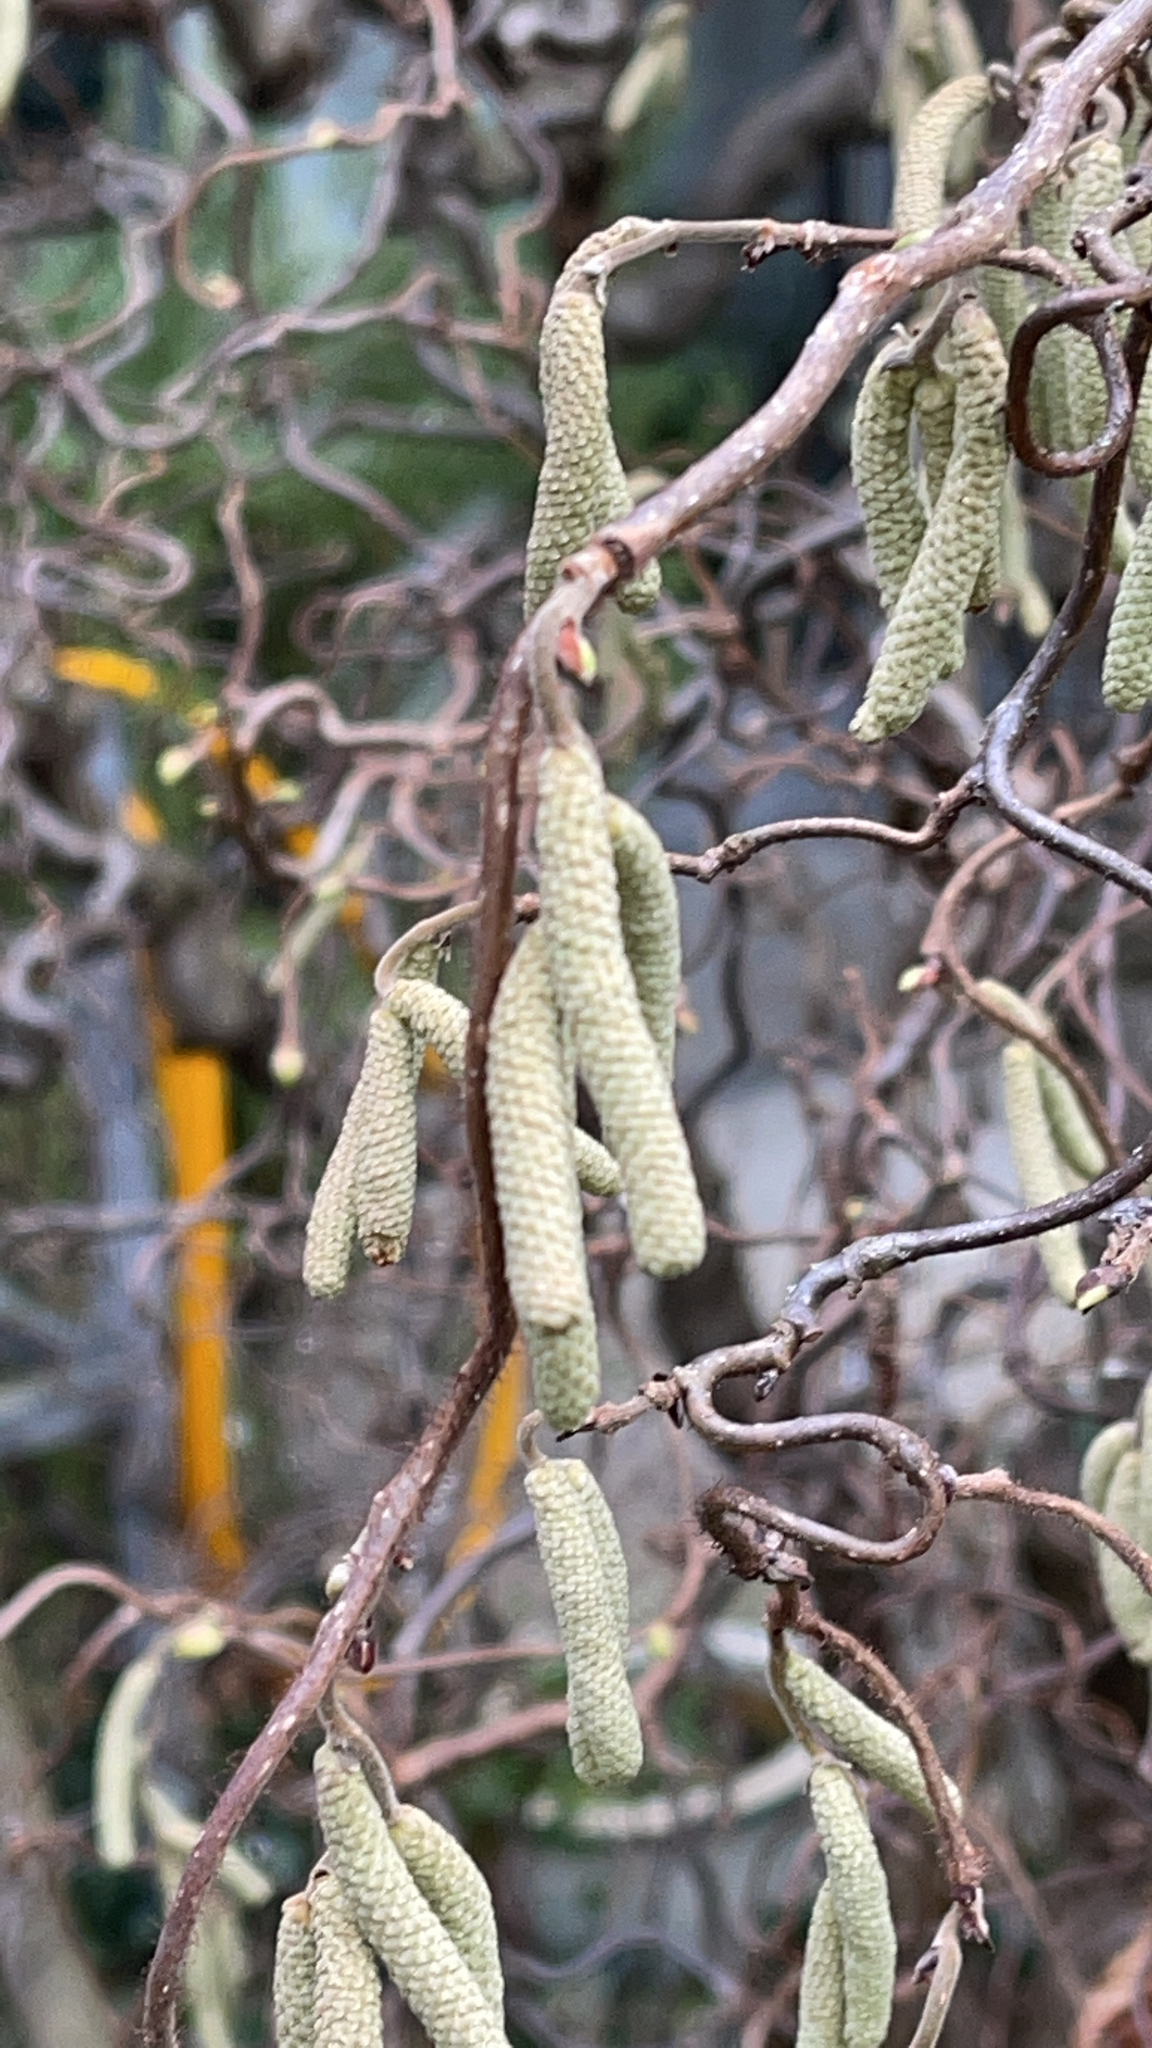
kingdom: Plantae
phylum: Tracheophyta
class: Magnoliopsida
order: Fagales
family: Betulaceae
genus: Corylus
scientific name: Corylus avellana
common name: European hazel
